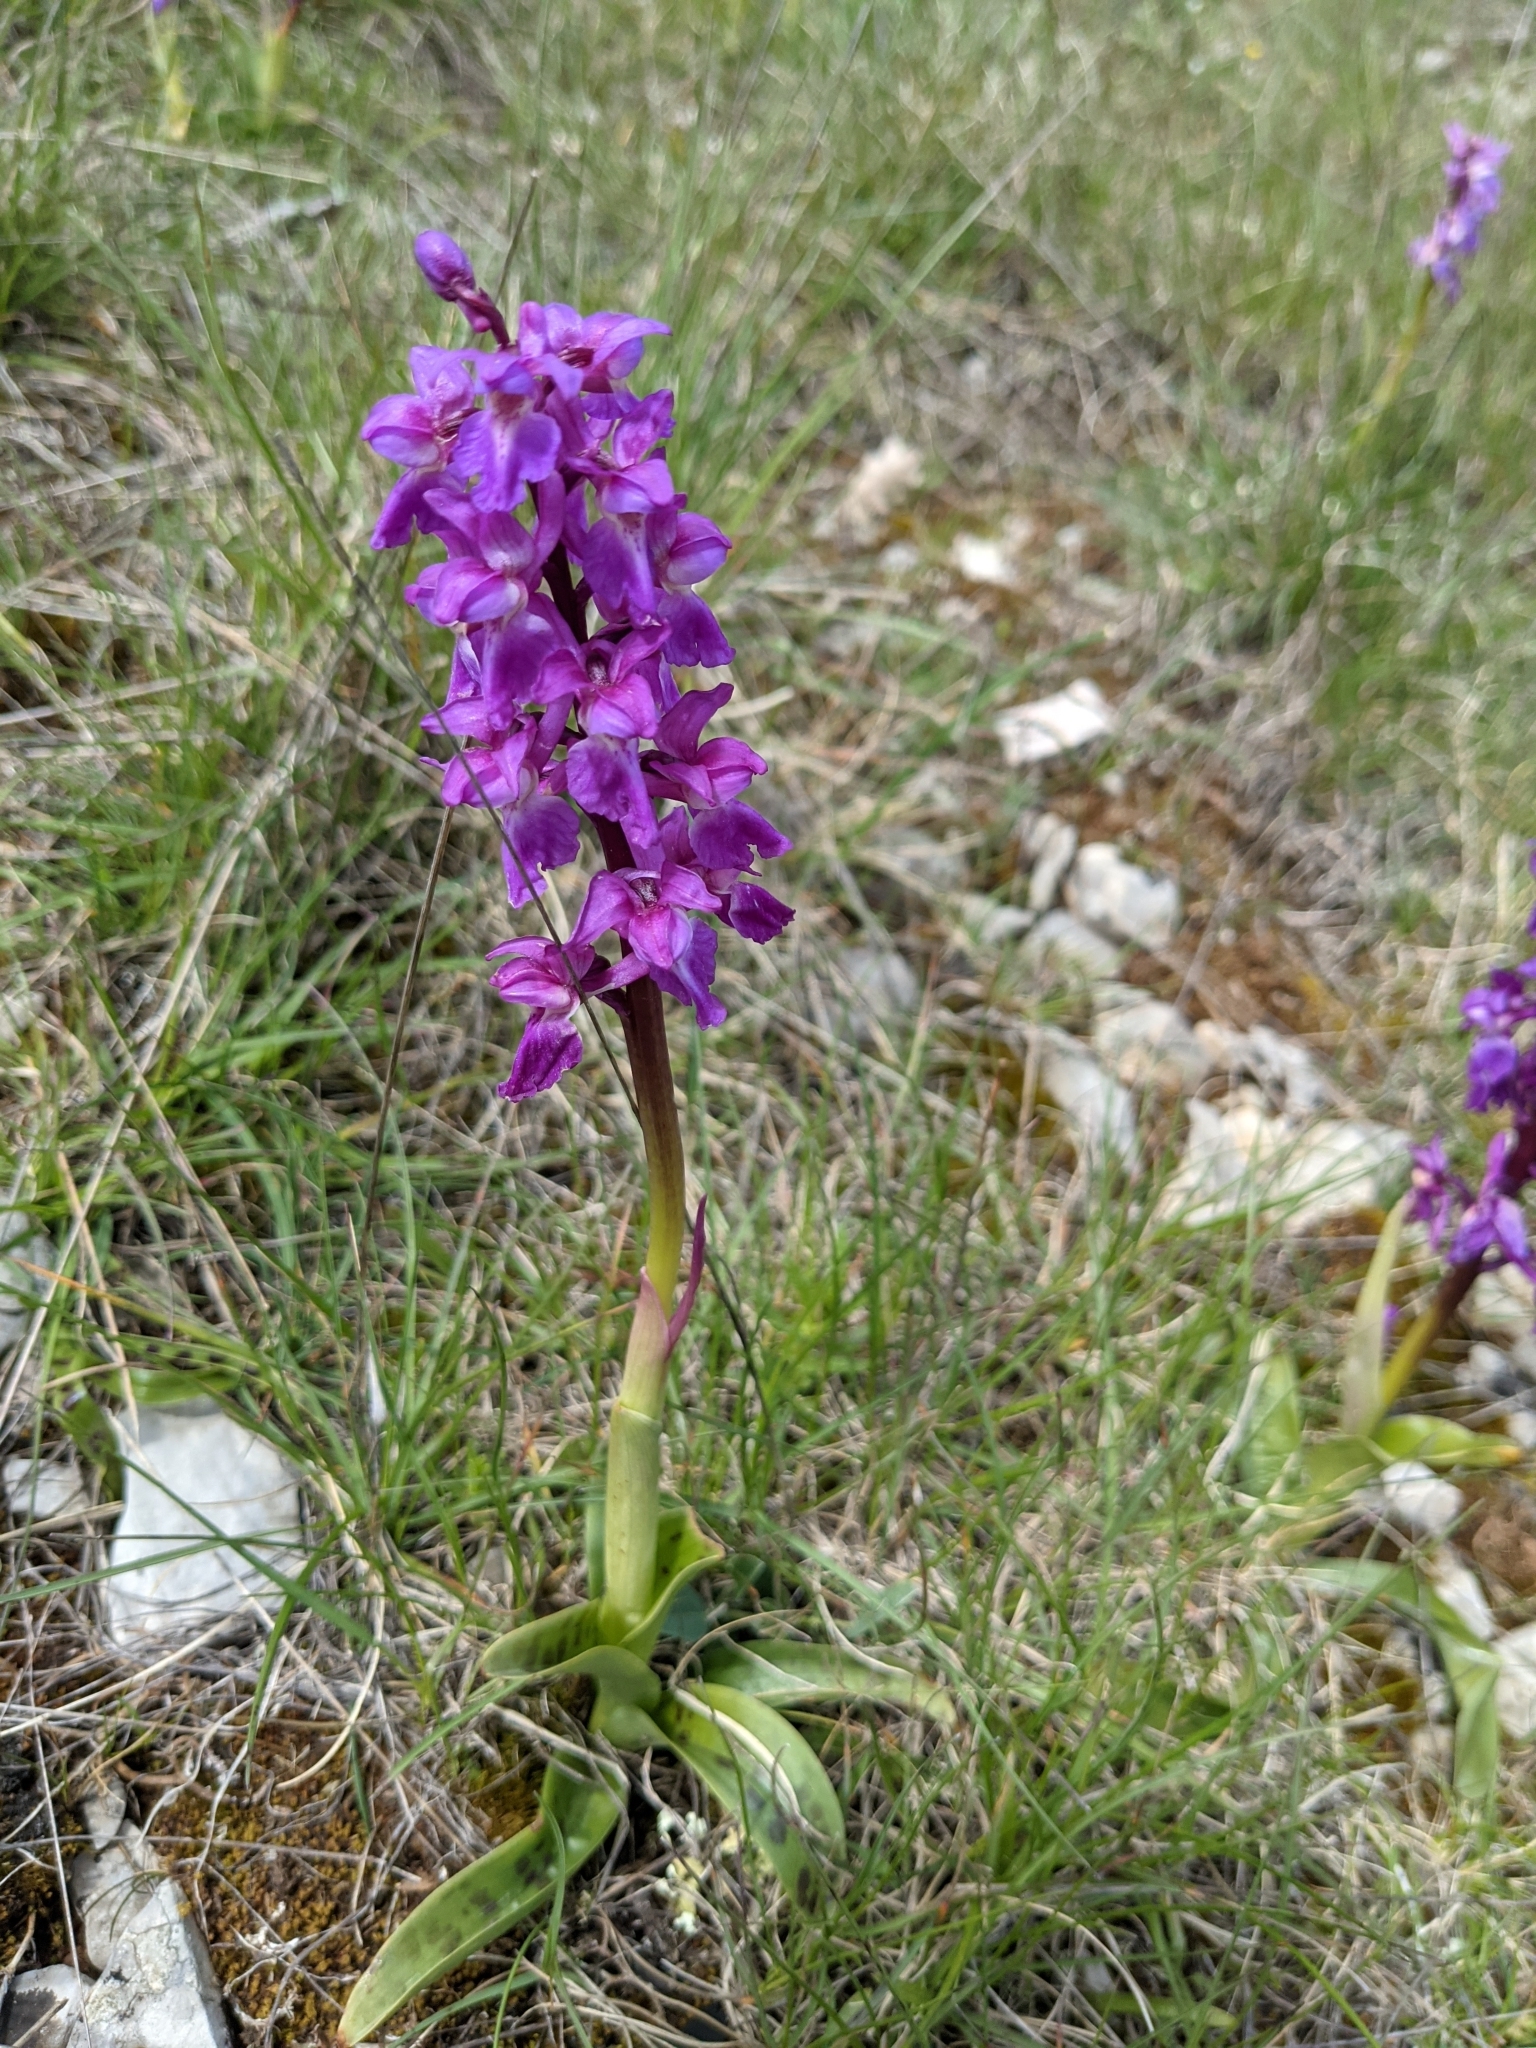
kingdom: Plantae
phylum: Tracheophyta
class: Liliopsida
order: Asparagales
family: Orchidaceae
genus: Orchis
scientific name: Orchis mascula
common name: Early-purple orchid
